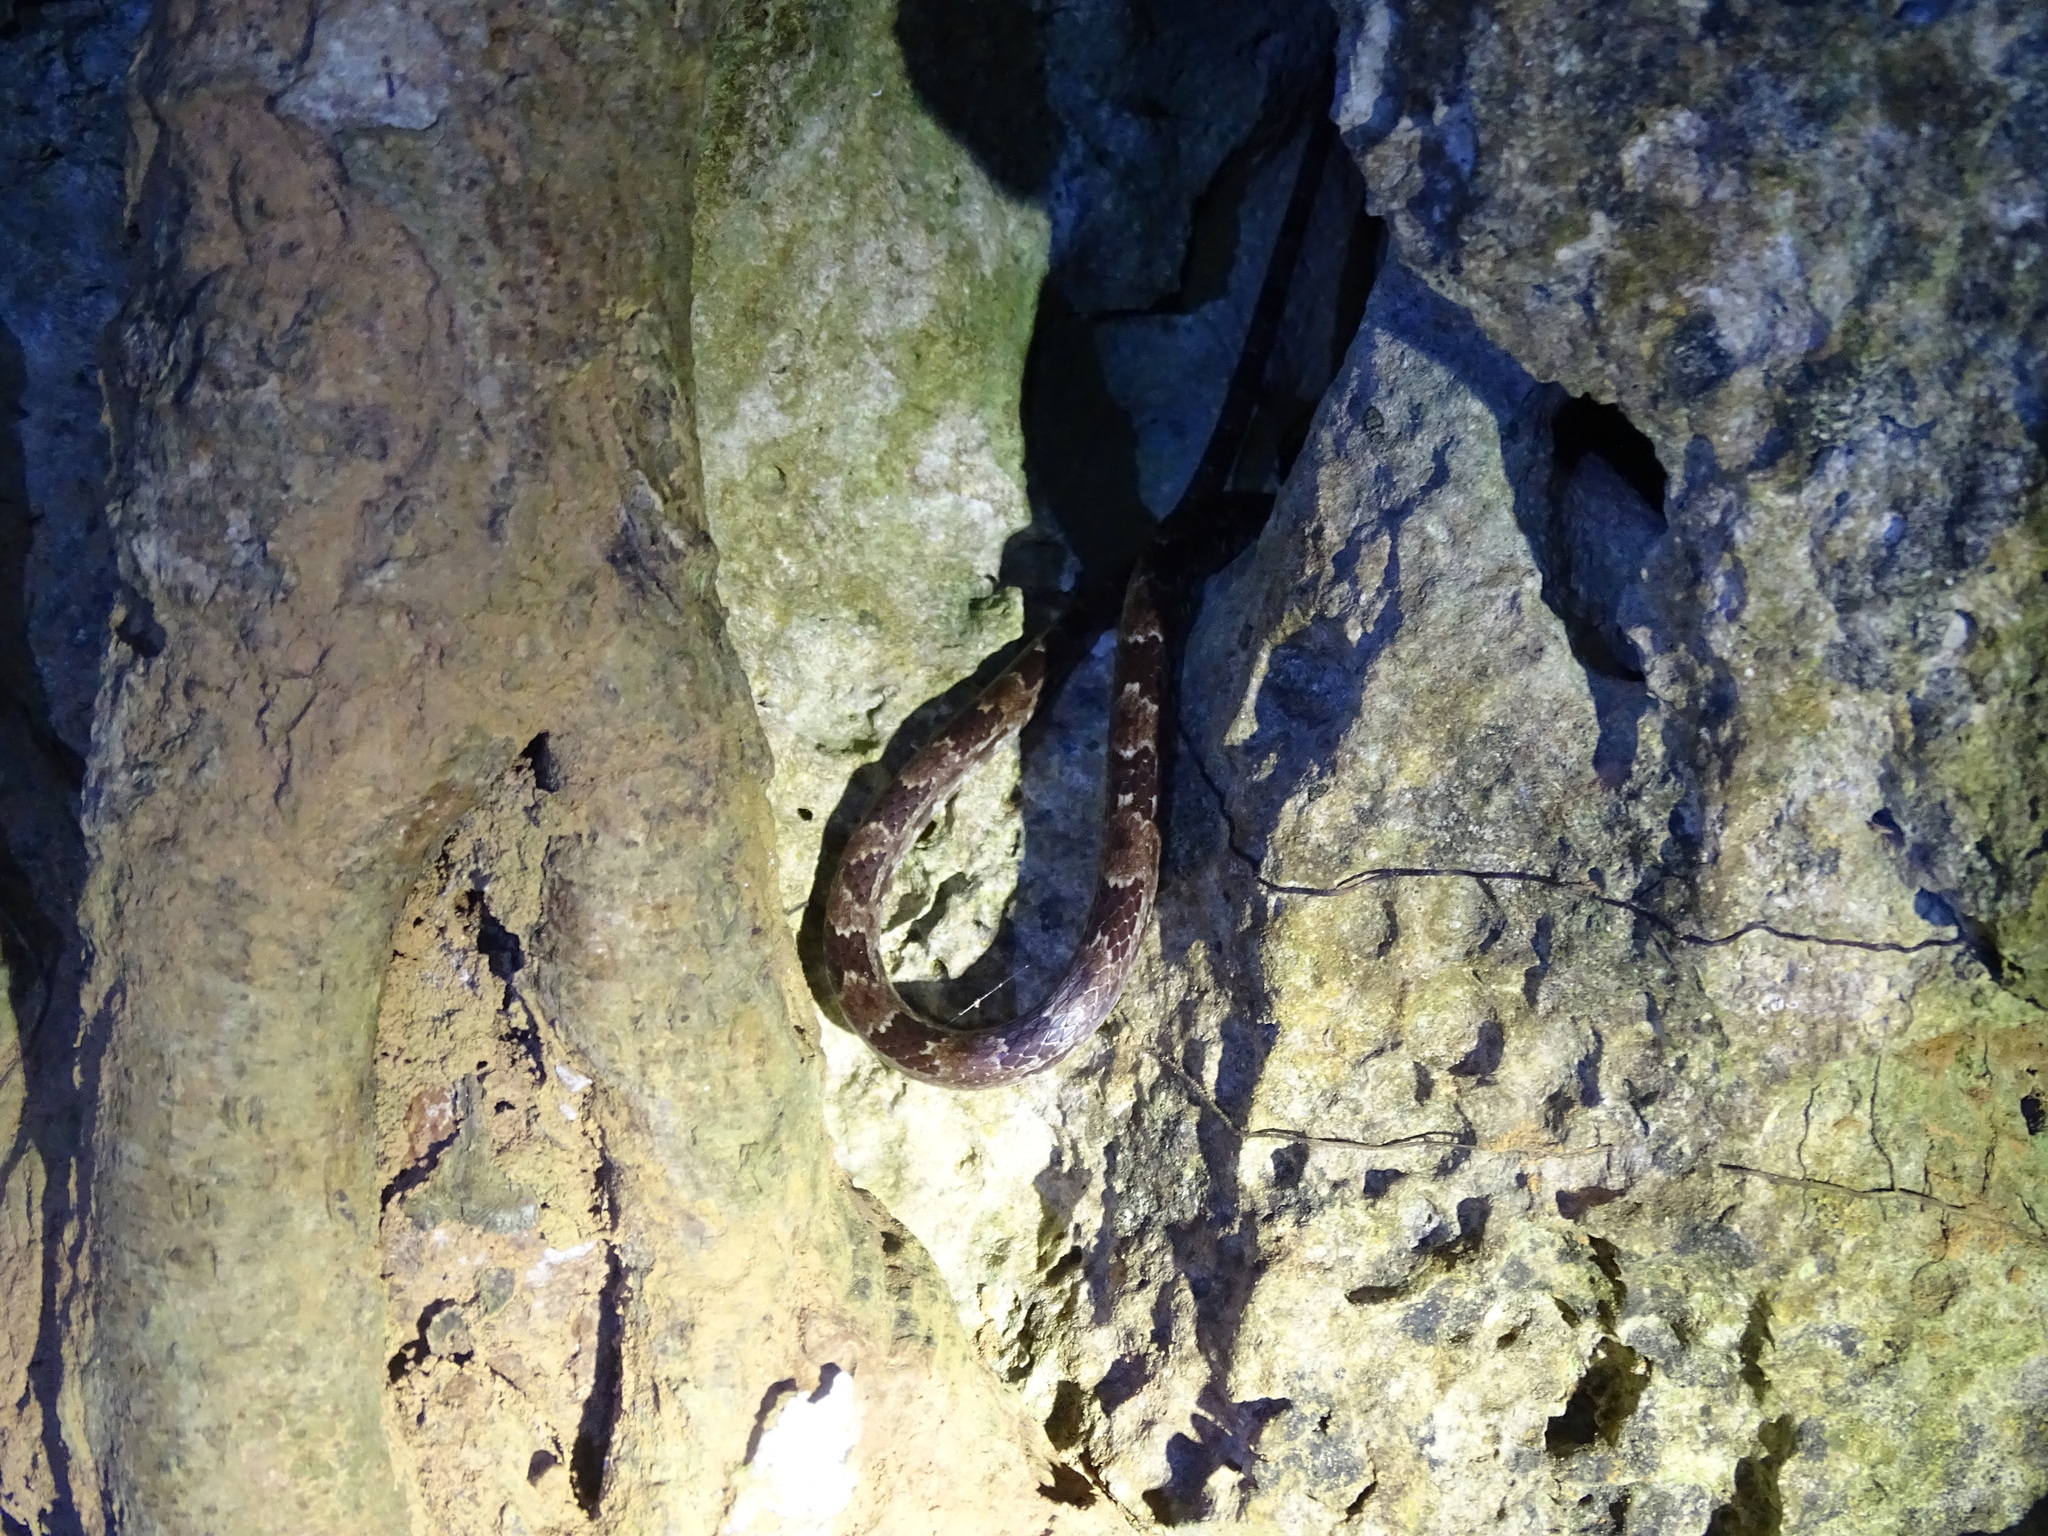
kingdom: Animalia
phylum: Chordata
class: Squamata
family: Colubridae
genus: Lycodon
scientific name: Lycodon ruhstrati
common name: Rushstrat's wolf snake
